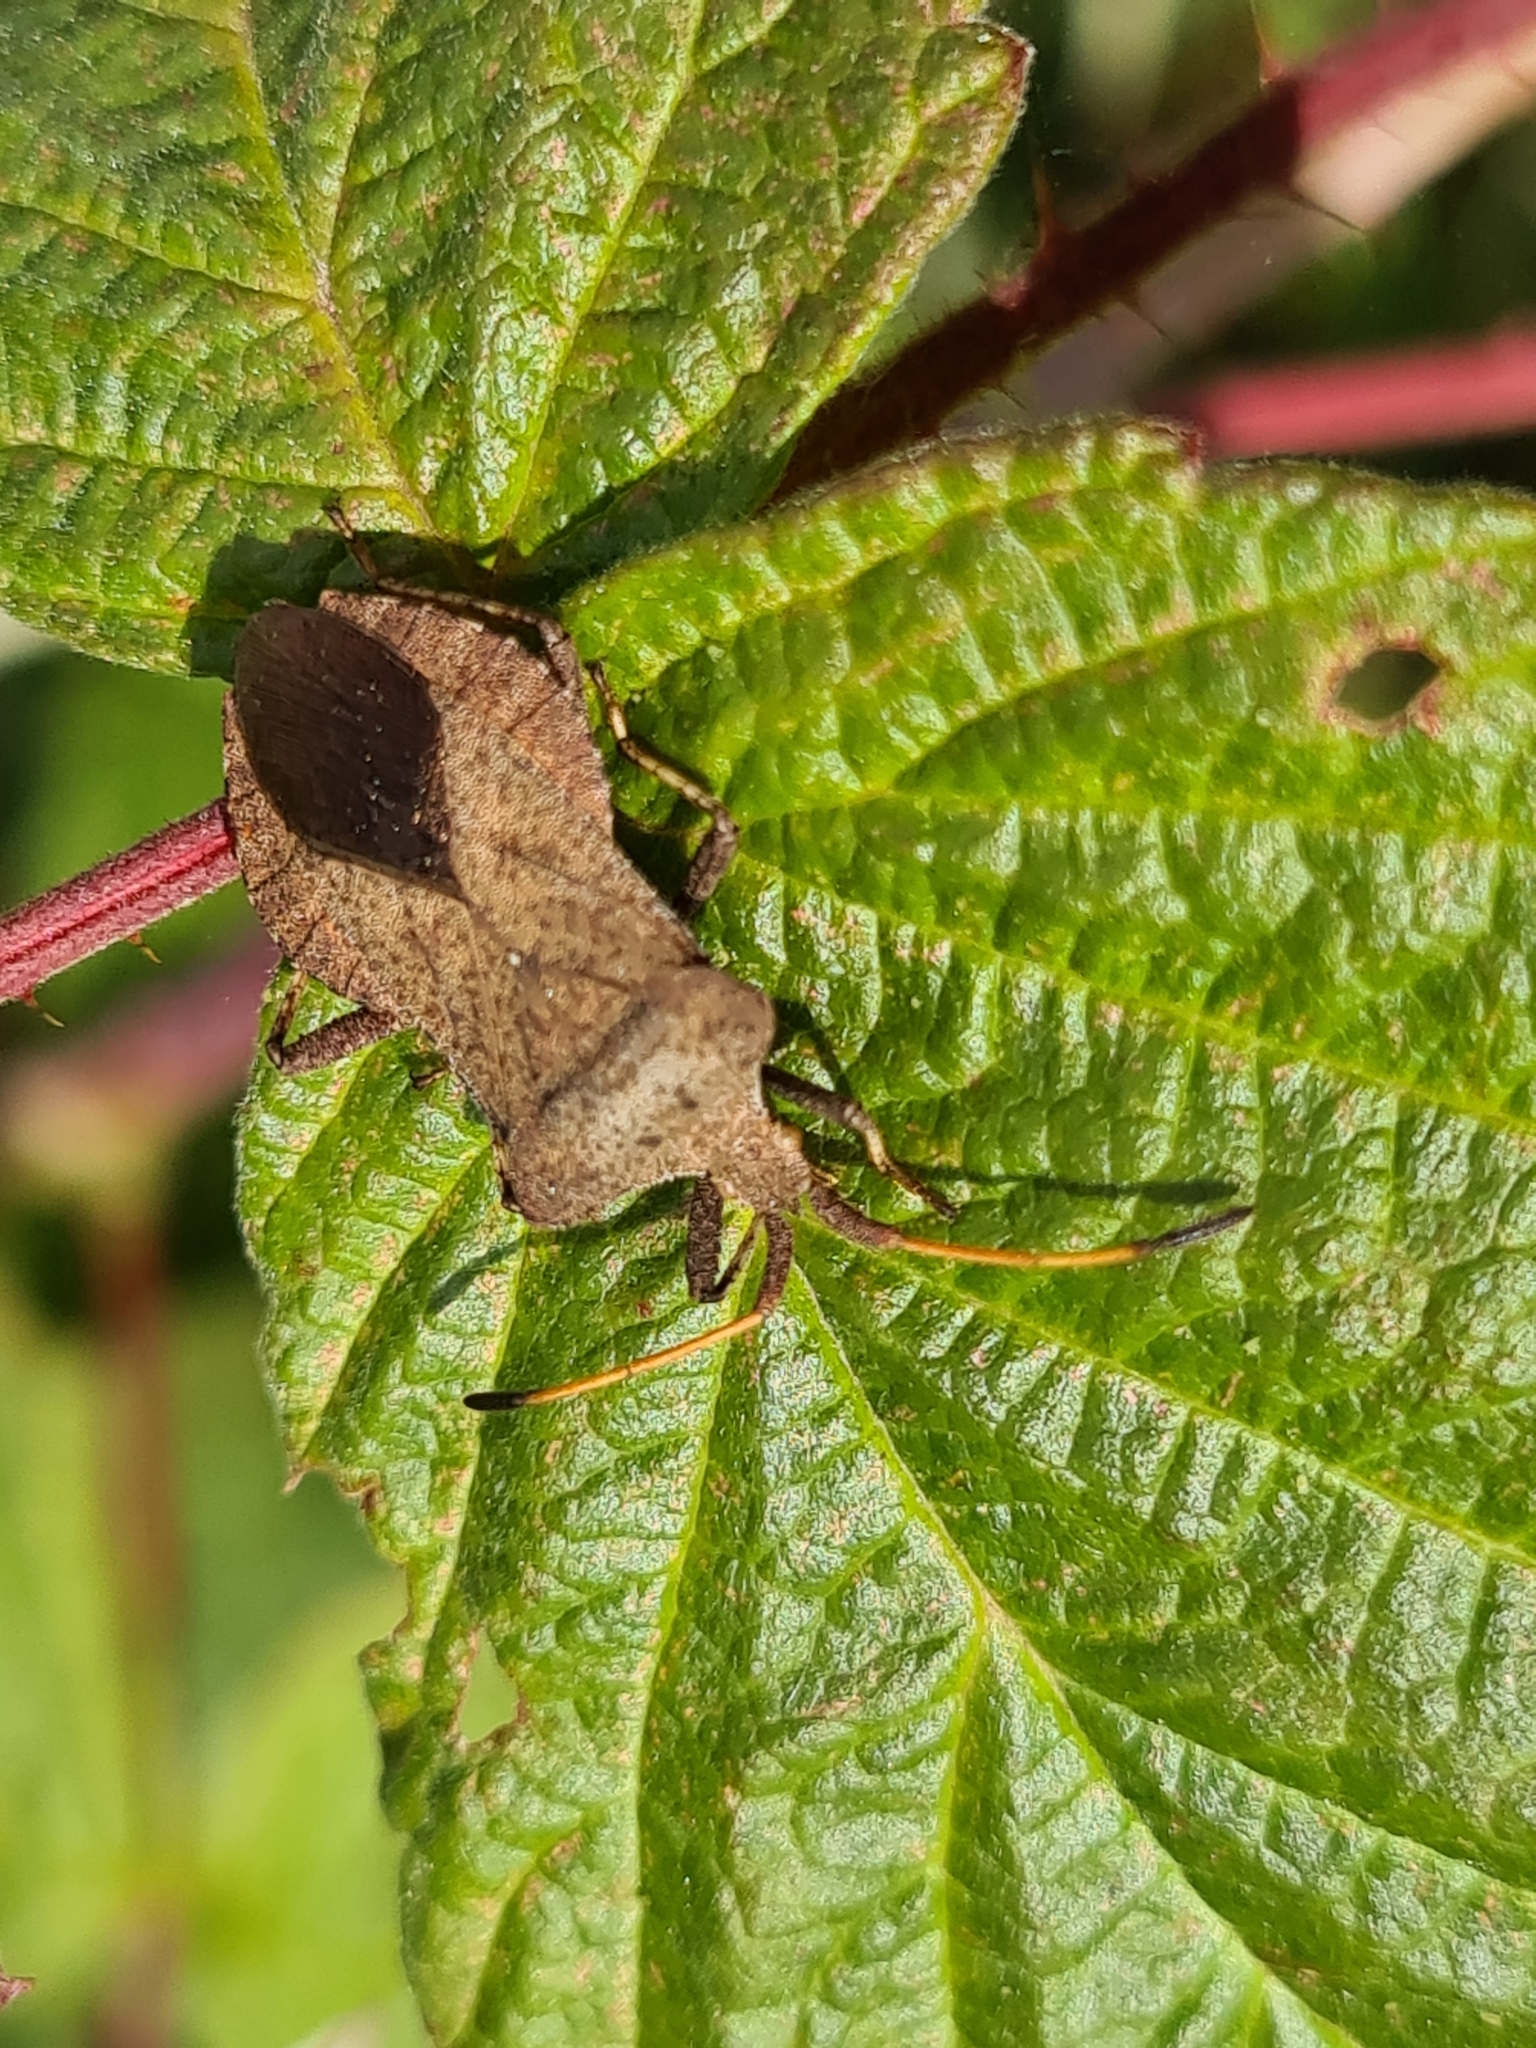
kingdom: Animalia
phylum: Arthropoda
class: Insecta
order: Hemiptera
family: Coreidae
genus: Coreus
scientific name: Coreus marginatus
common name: Dock bug
